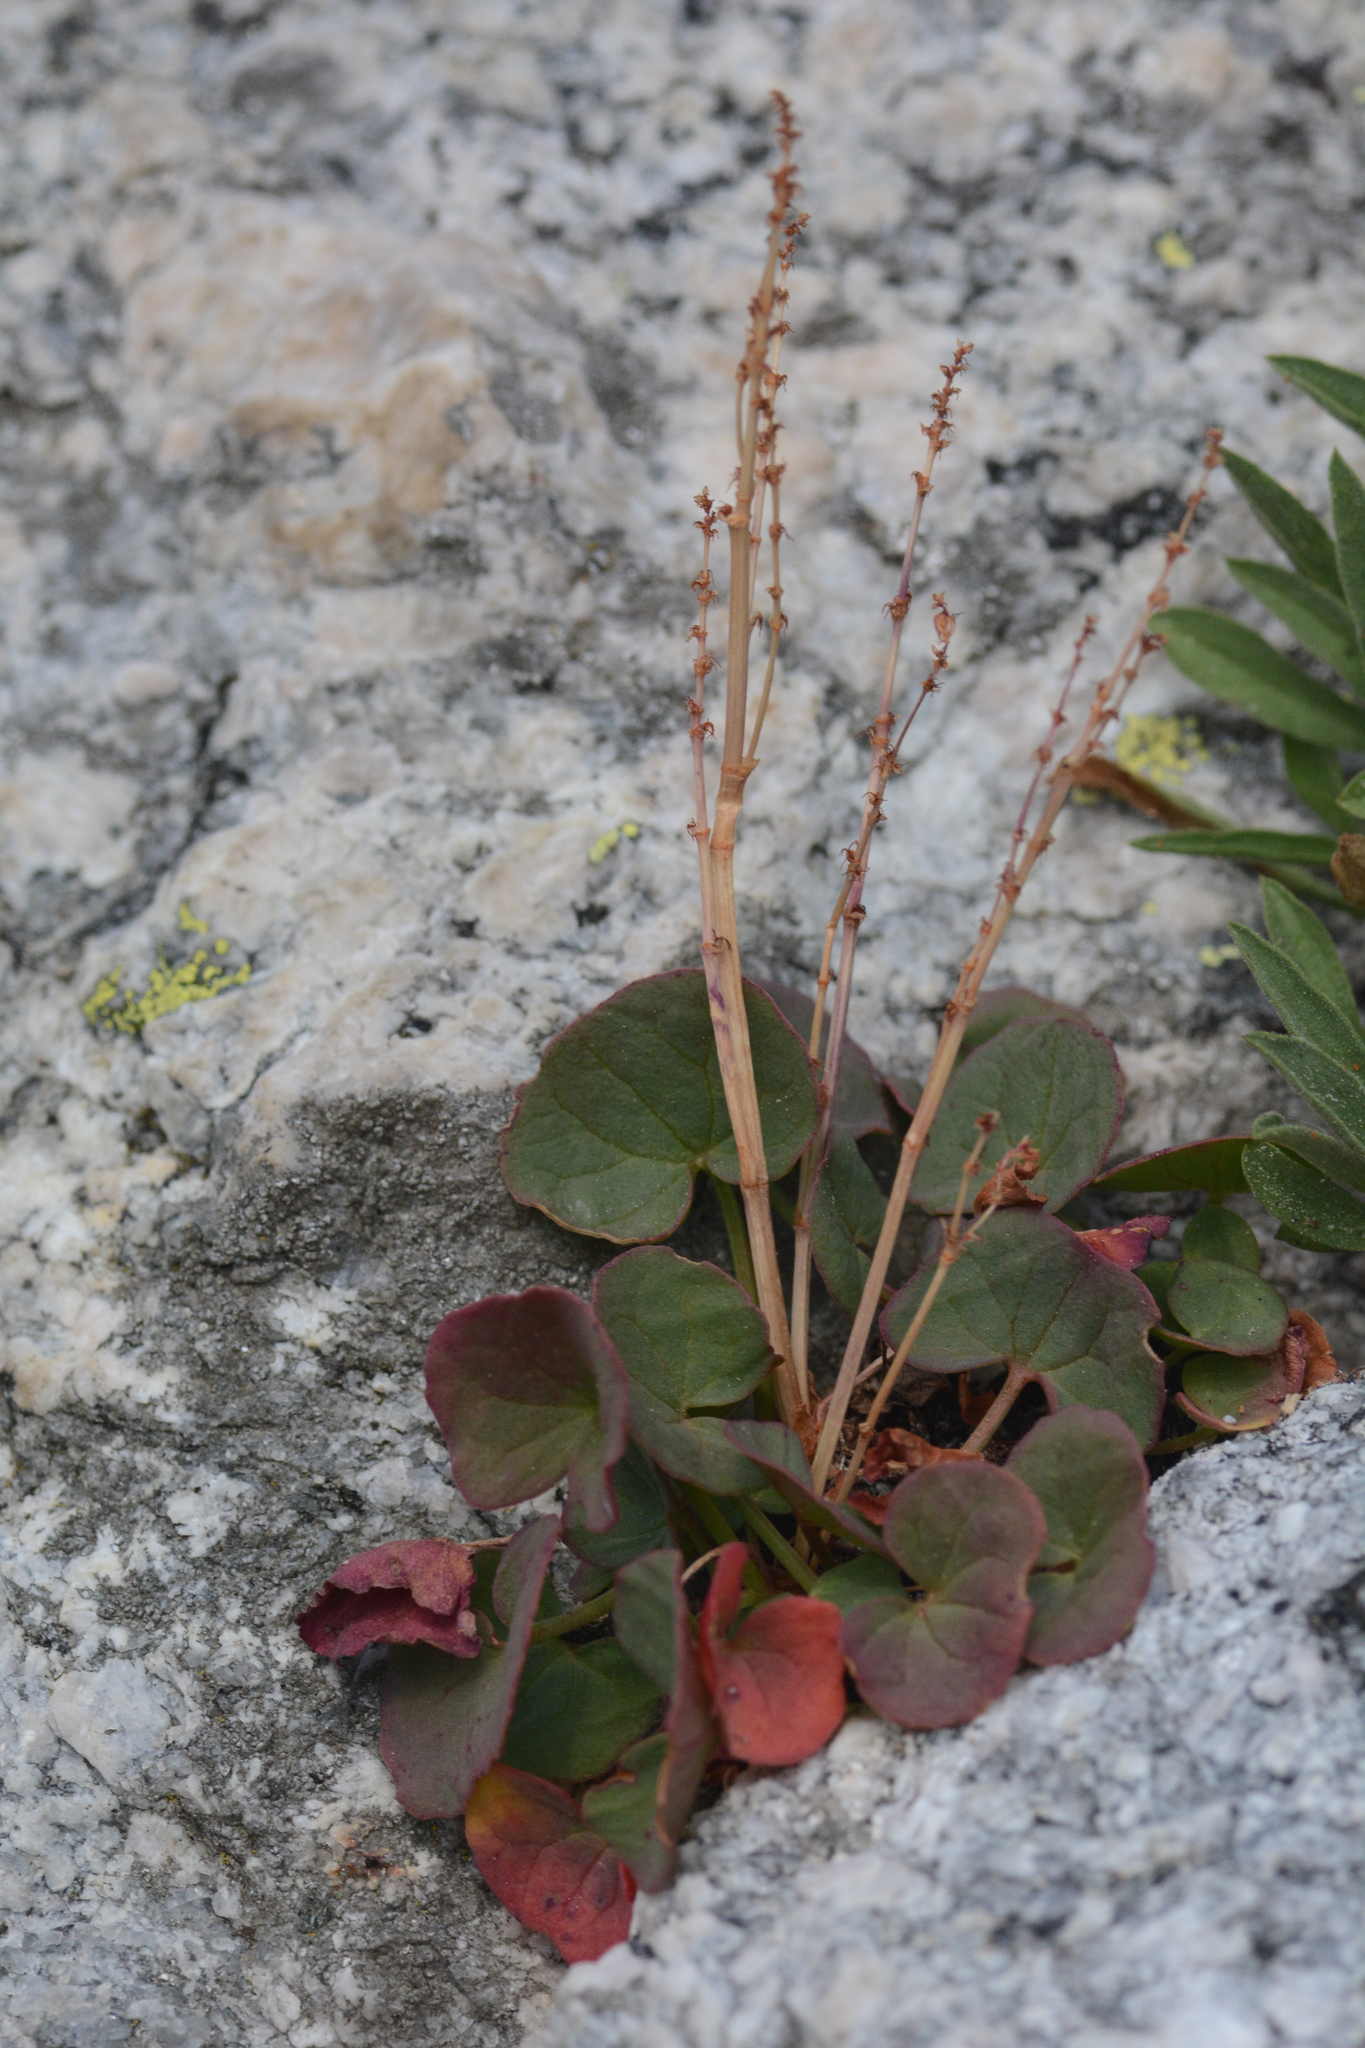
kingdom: Plantae
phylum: Tracheophyta
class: Magnoliopsida
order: Caryophyllales
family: Polygonaceae
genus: Oxyria
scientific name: Oxyria digyna
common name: Alpine mountain-sorrel
